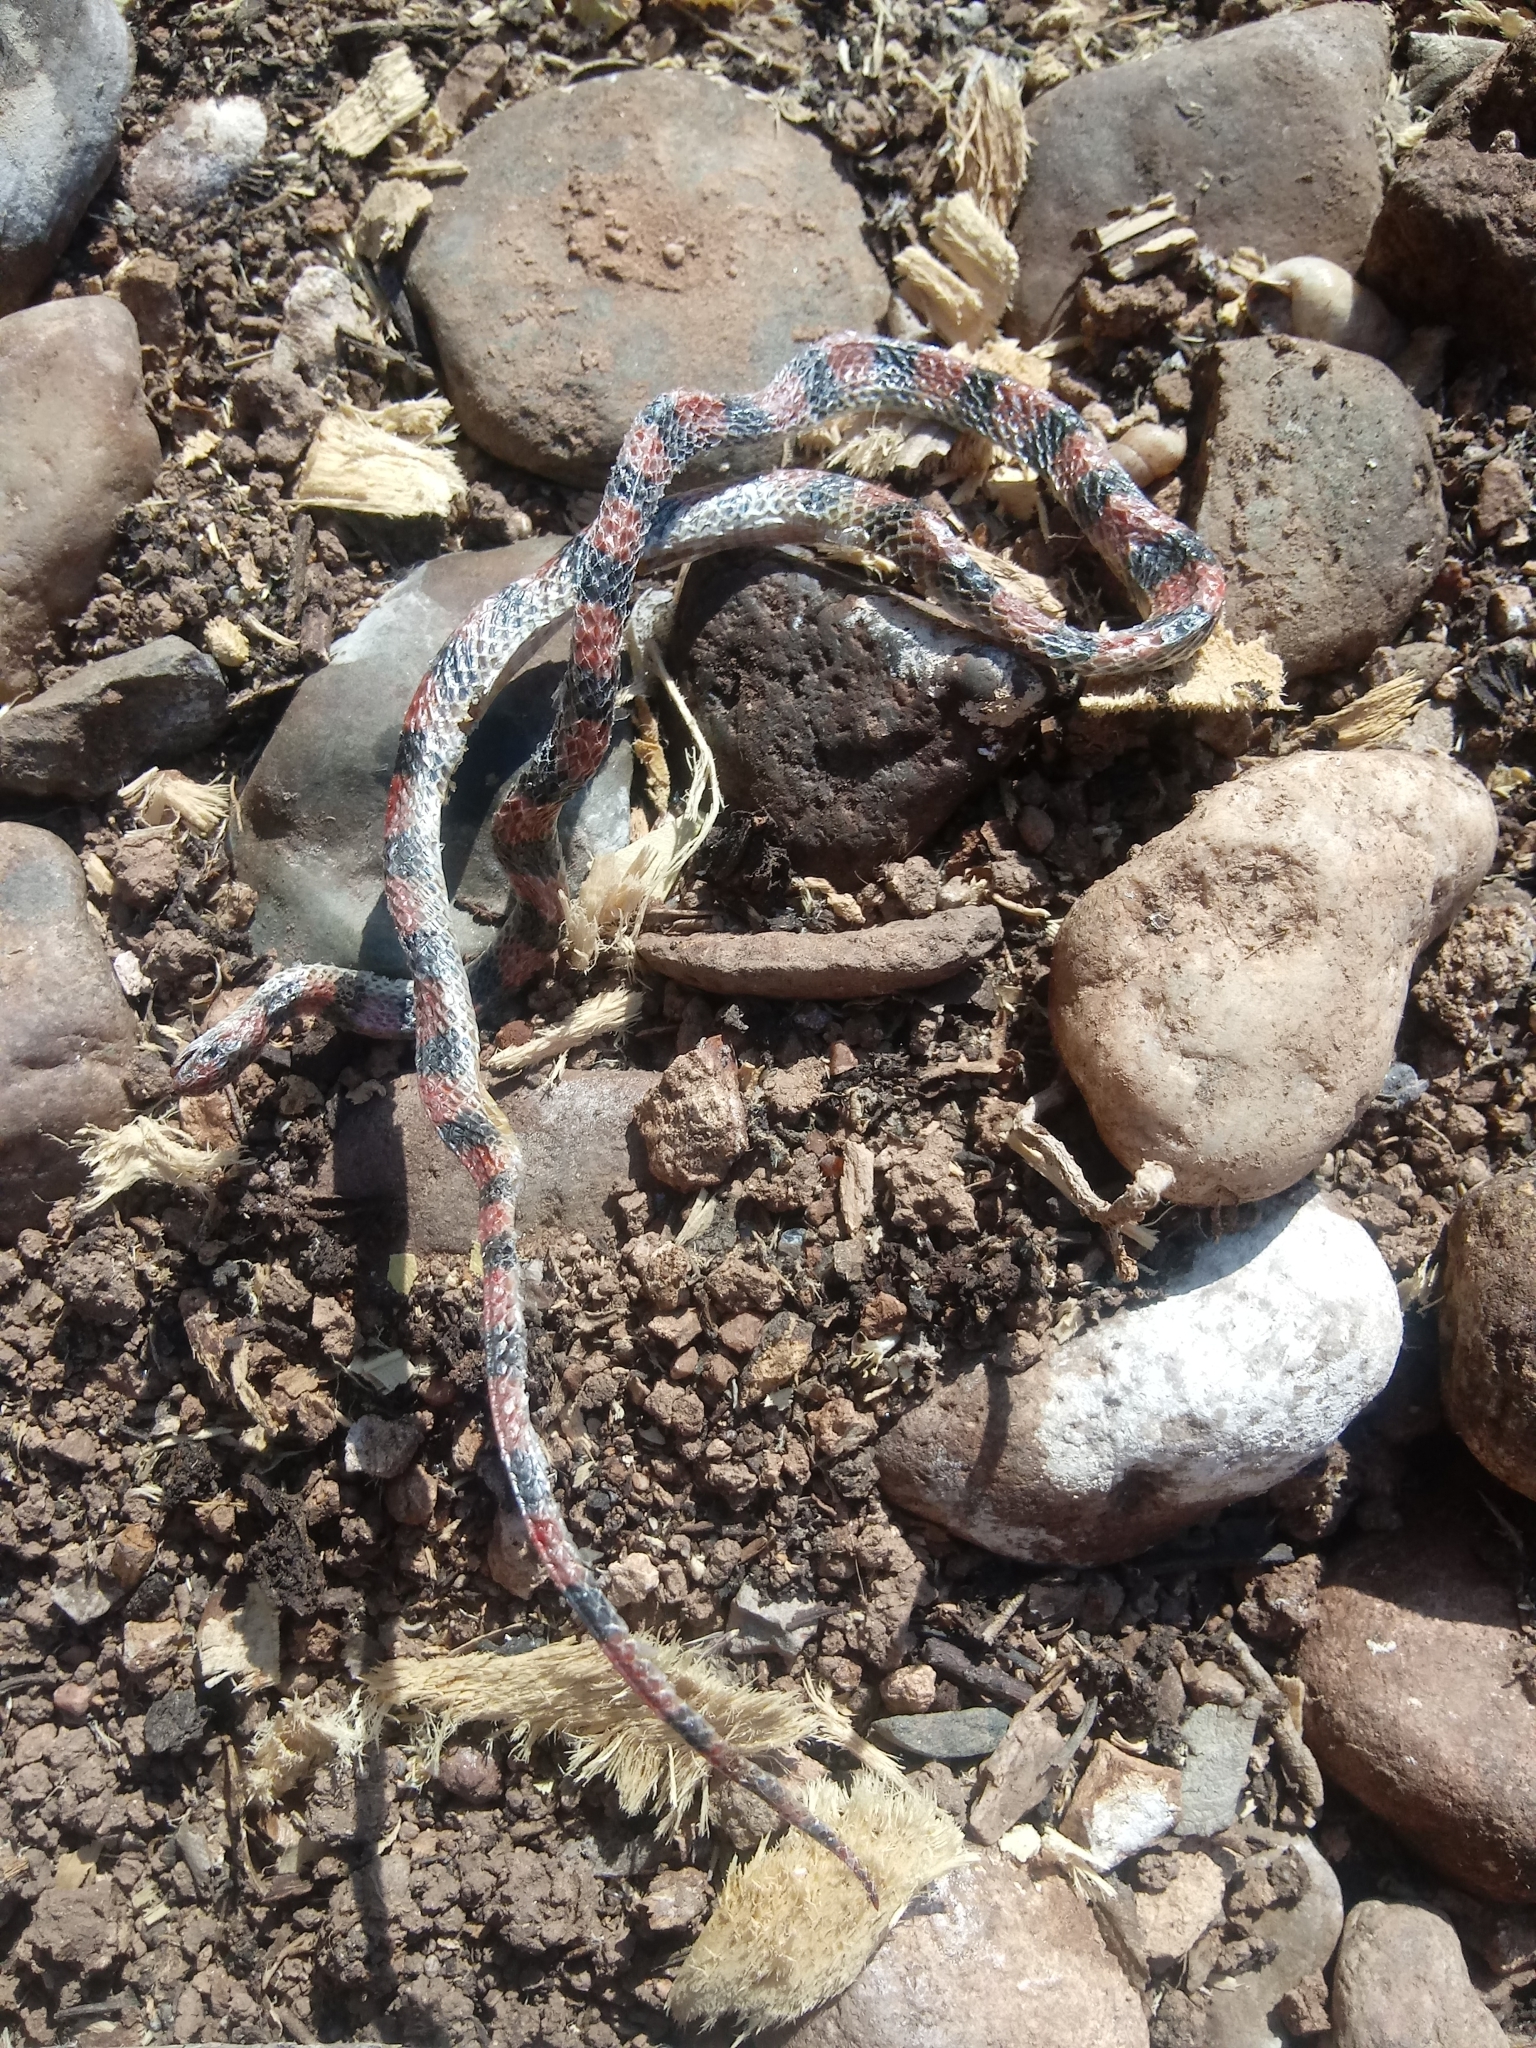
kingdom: Animalia
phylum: Chordata
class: Squamata
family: Colubridae
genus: Sonora
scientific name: Sonora semiannulata
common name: Ground snake
